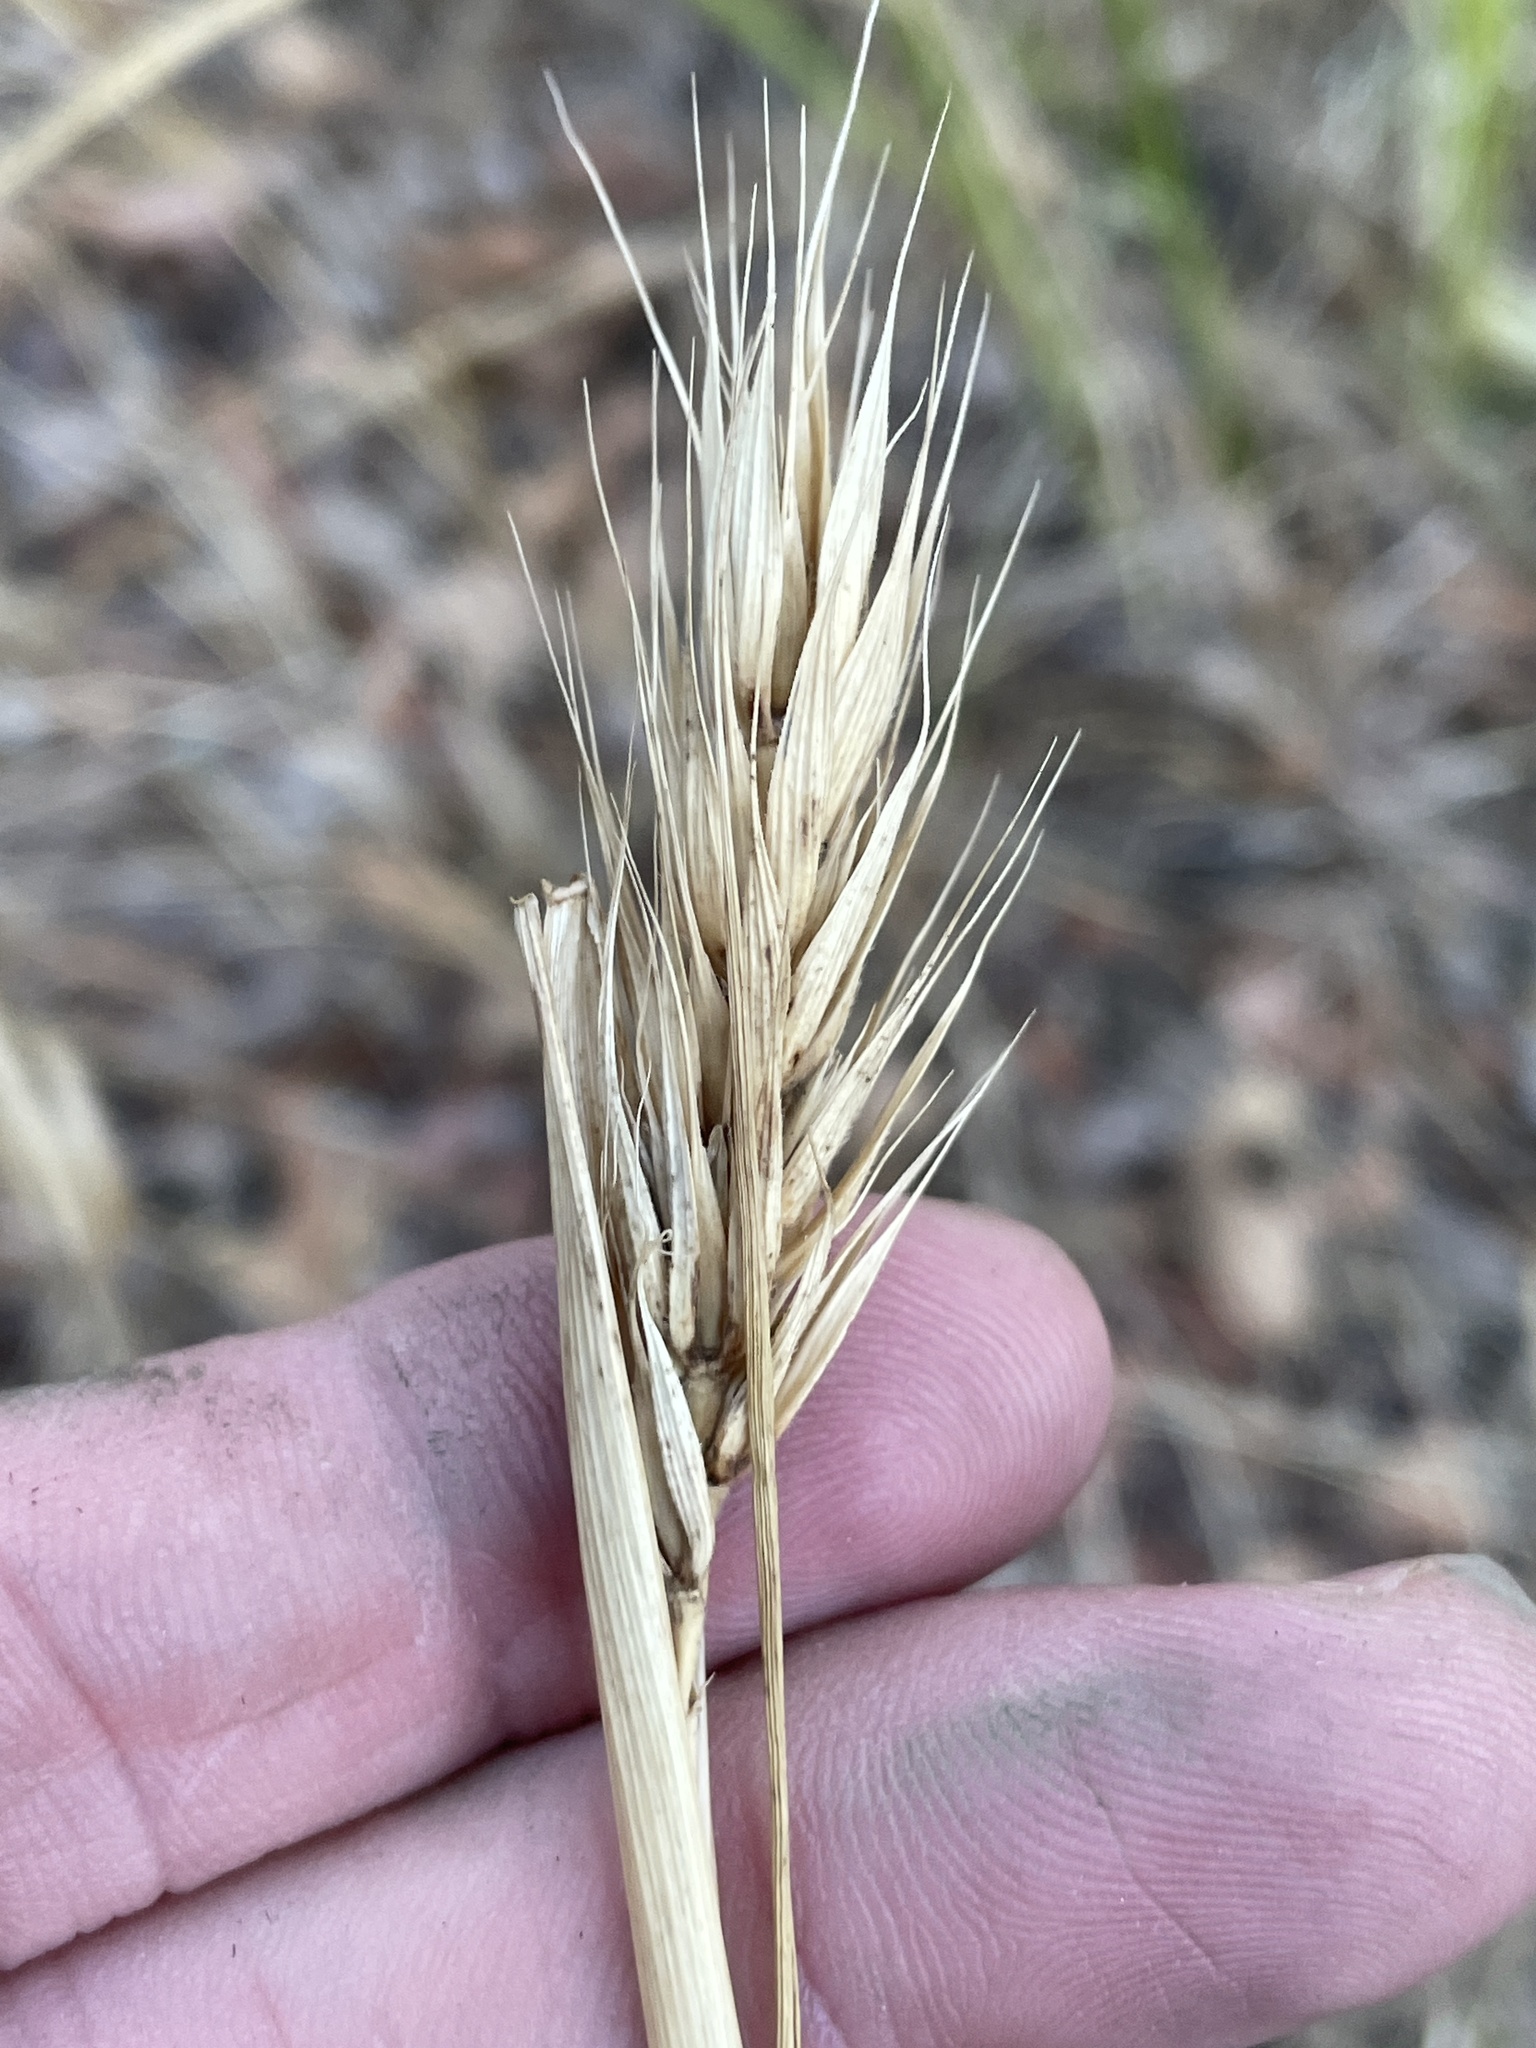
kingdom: Plantae
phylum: Tracheophyta
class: Liliopsida
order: Poales
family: Poaceae
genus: Elymus
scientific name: Elymus virginicus
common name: Common eastern wildrye
